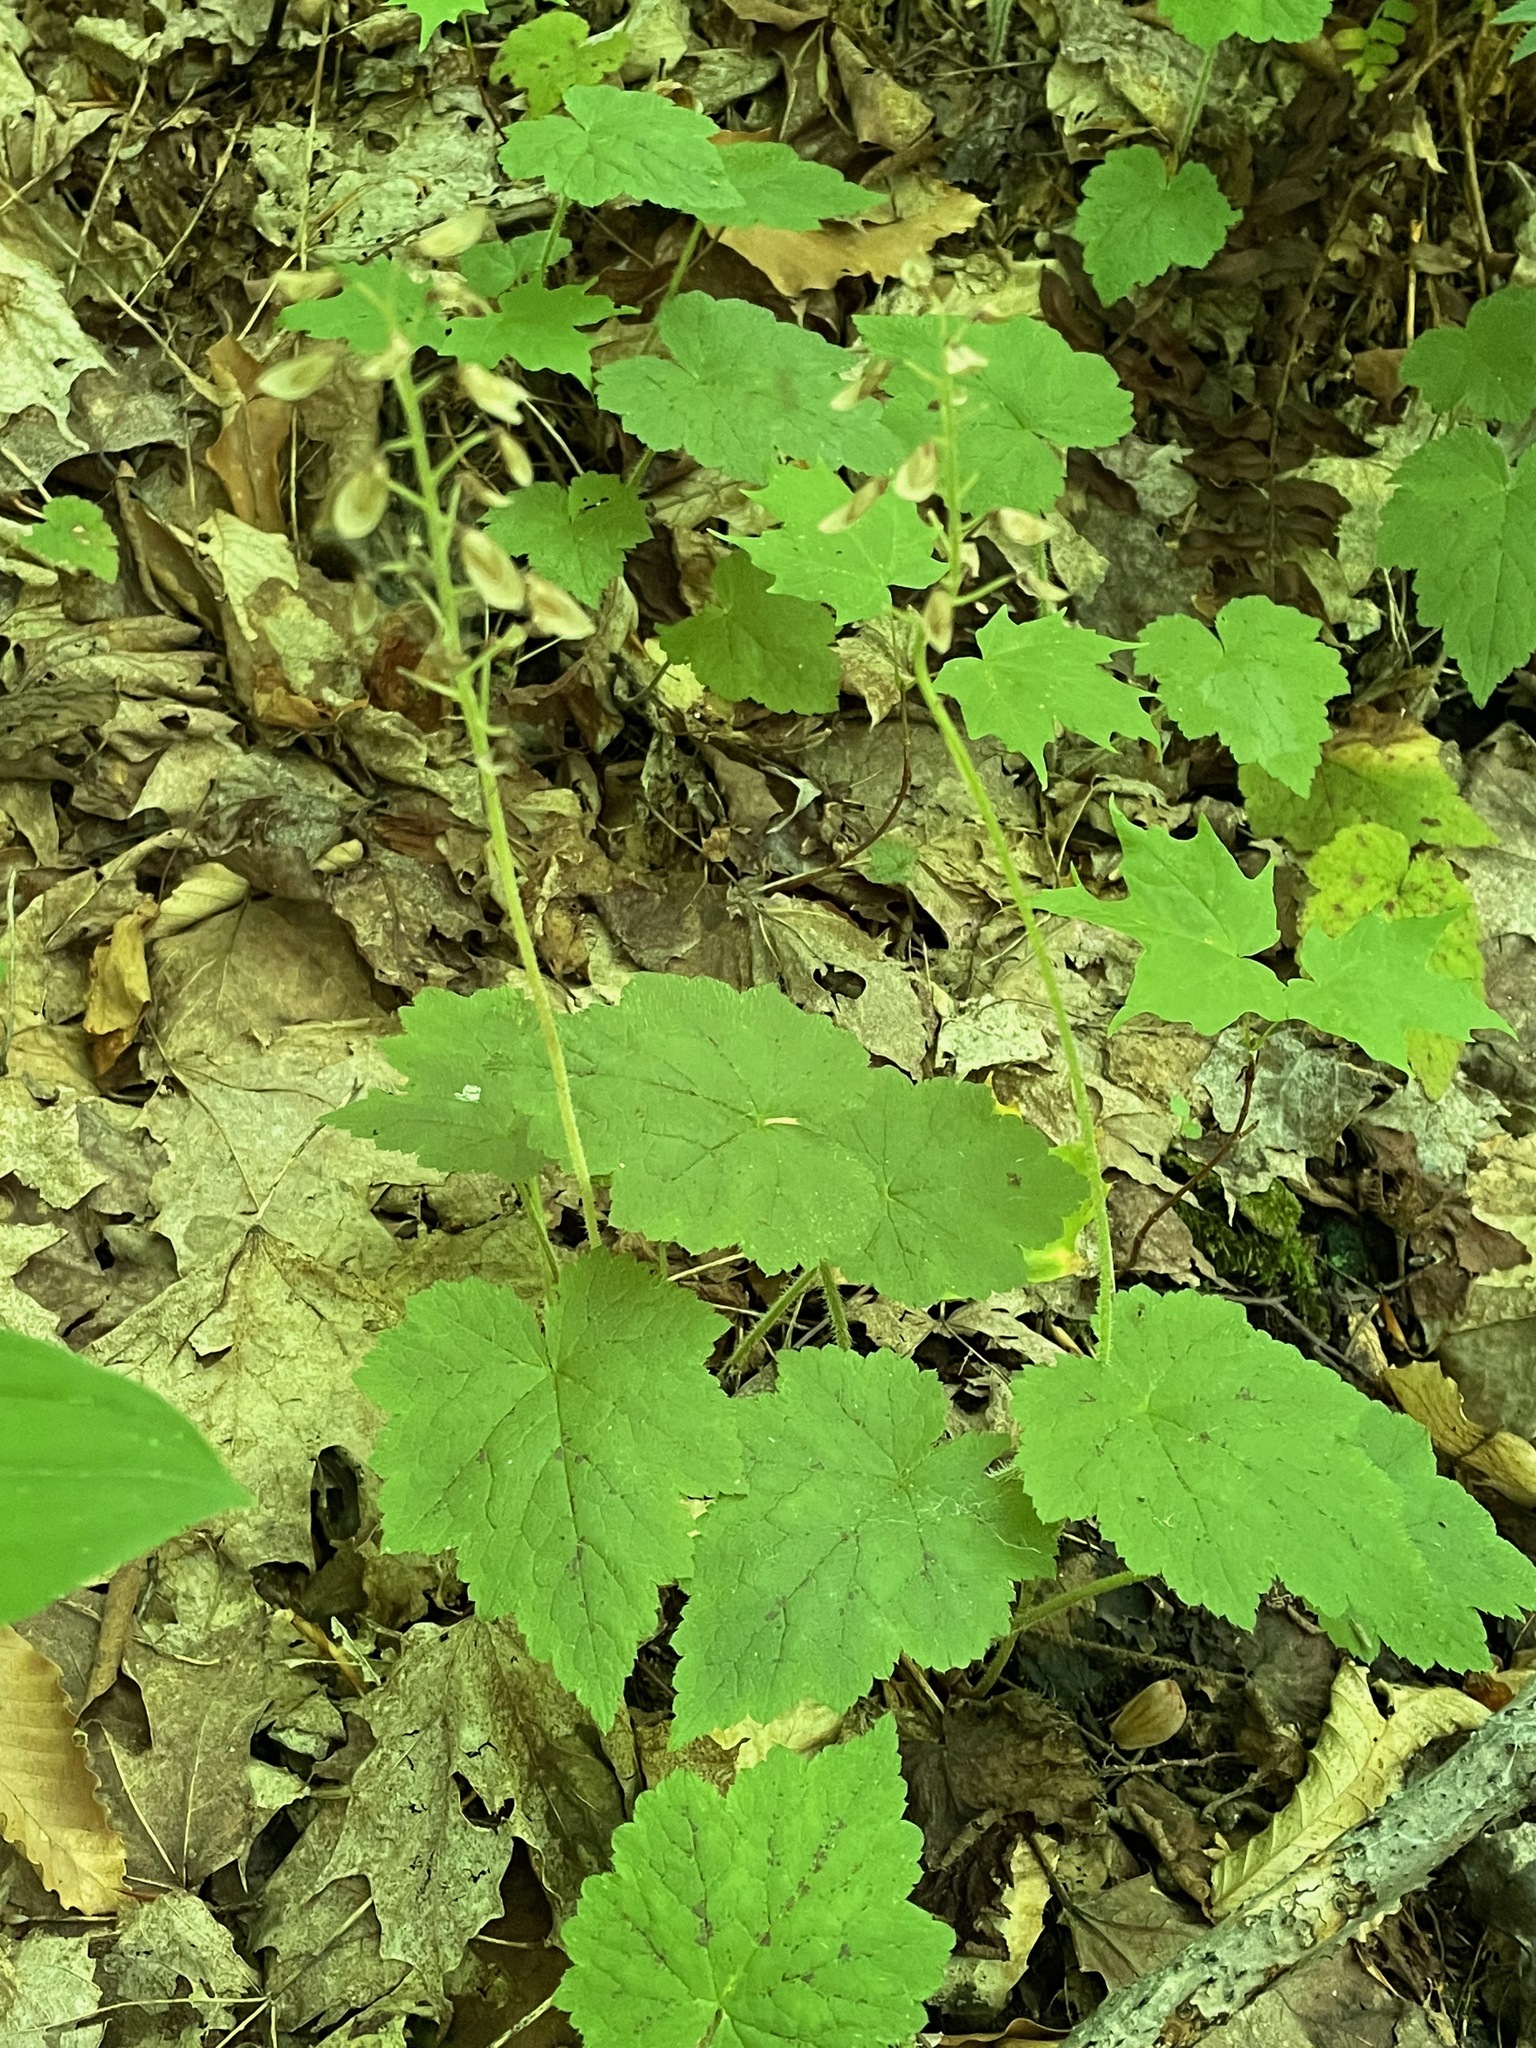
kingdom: Plantae
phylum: Tracheophyta
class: Magnoliopsida
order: Saxifragales
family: Saxifragaceae
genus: Tiarella
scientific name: Tiarella stolonifera
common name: Stoloniferous foamflower
